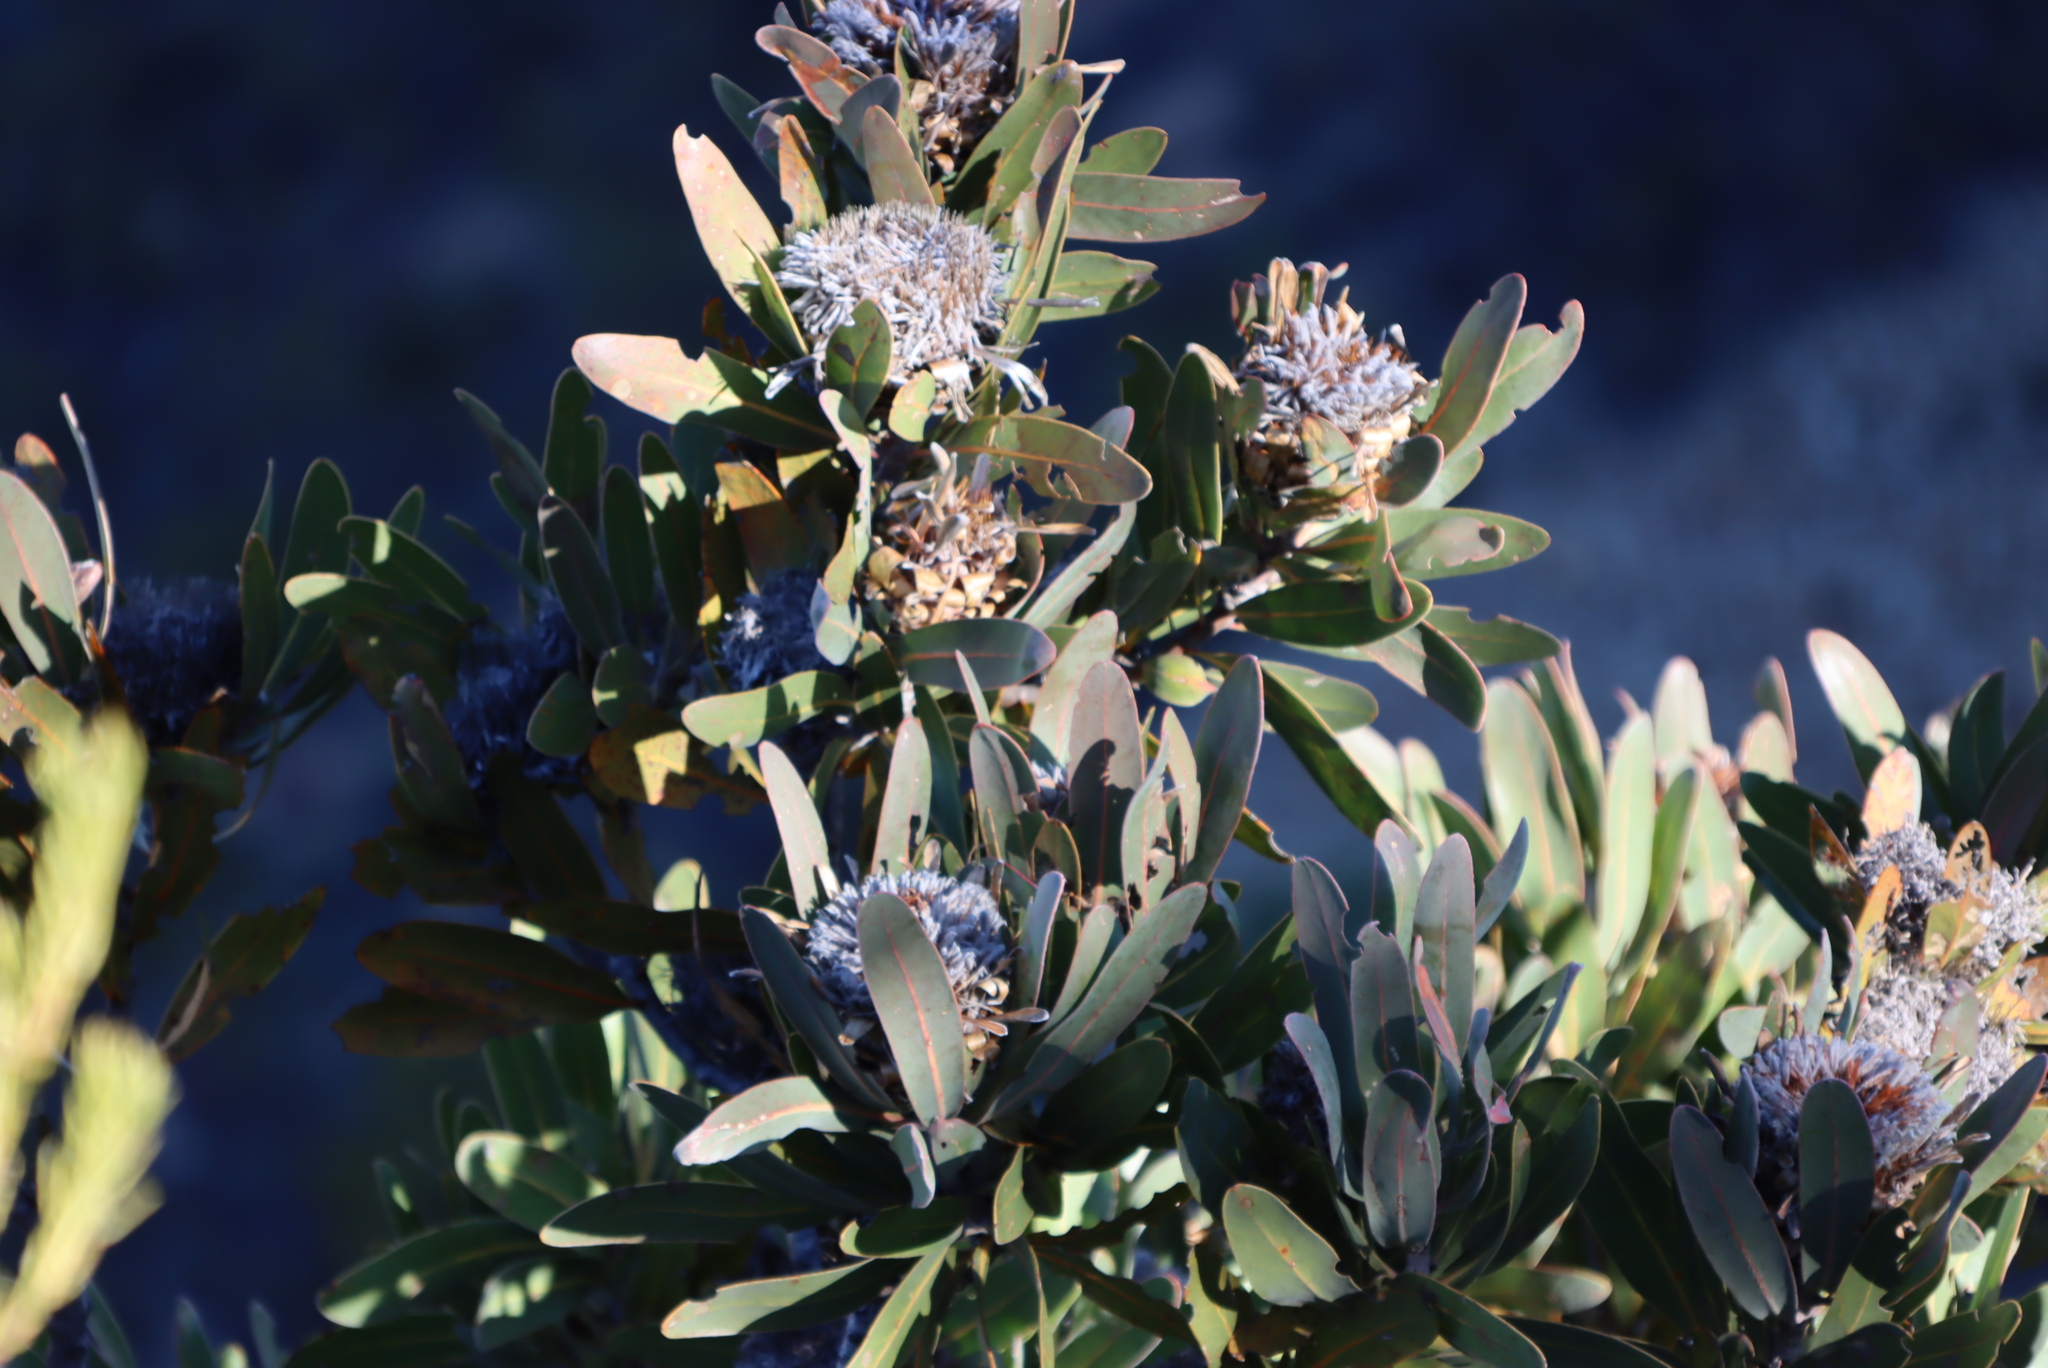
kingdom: Plantae
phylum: Tracheophyta
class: Magnoliopsida
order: Proteales
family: Proteaceae
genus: Protea
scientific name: Protea lorifolia
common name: Strap-leaved protea
